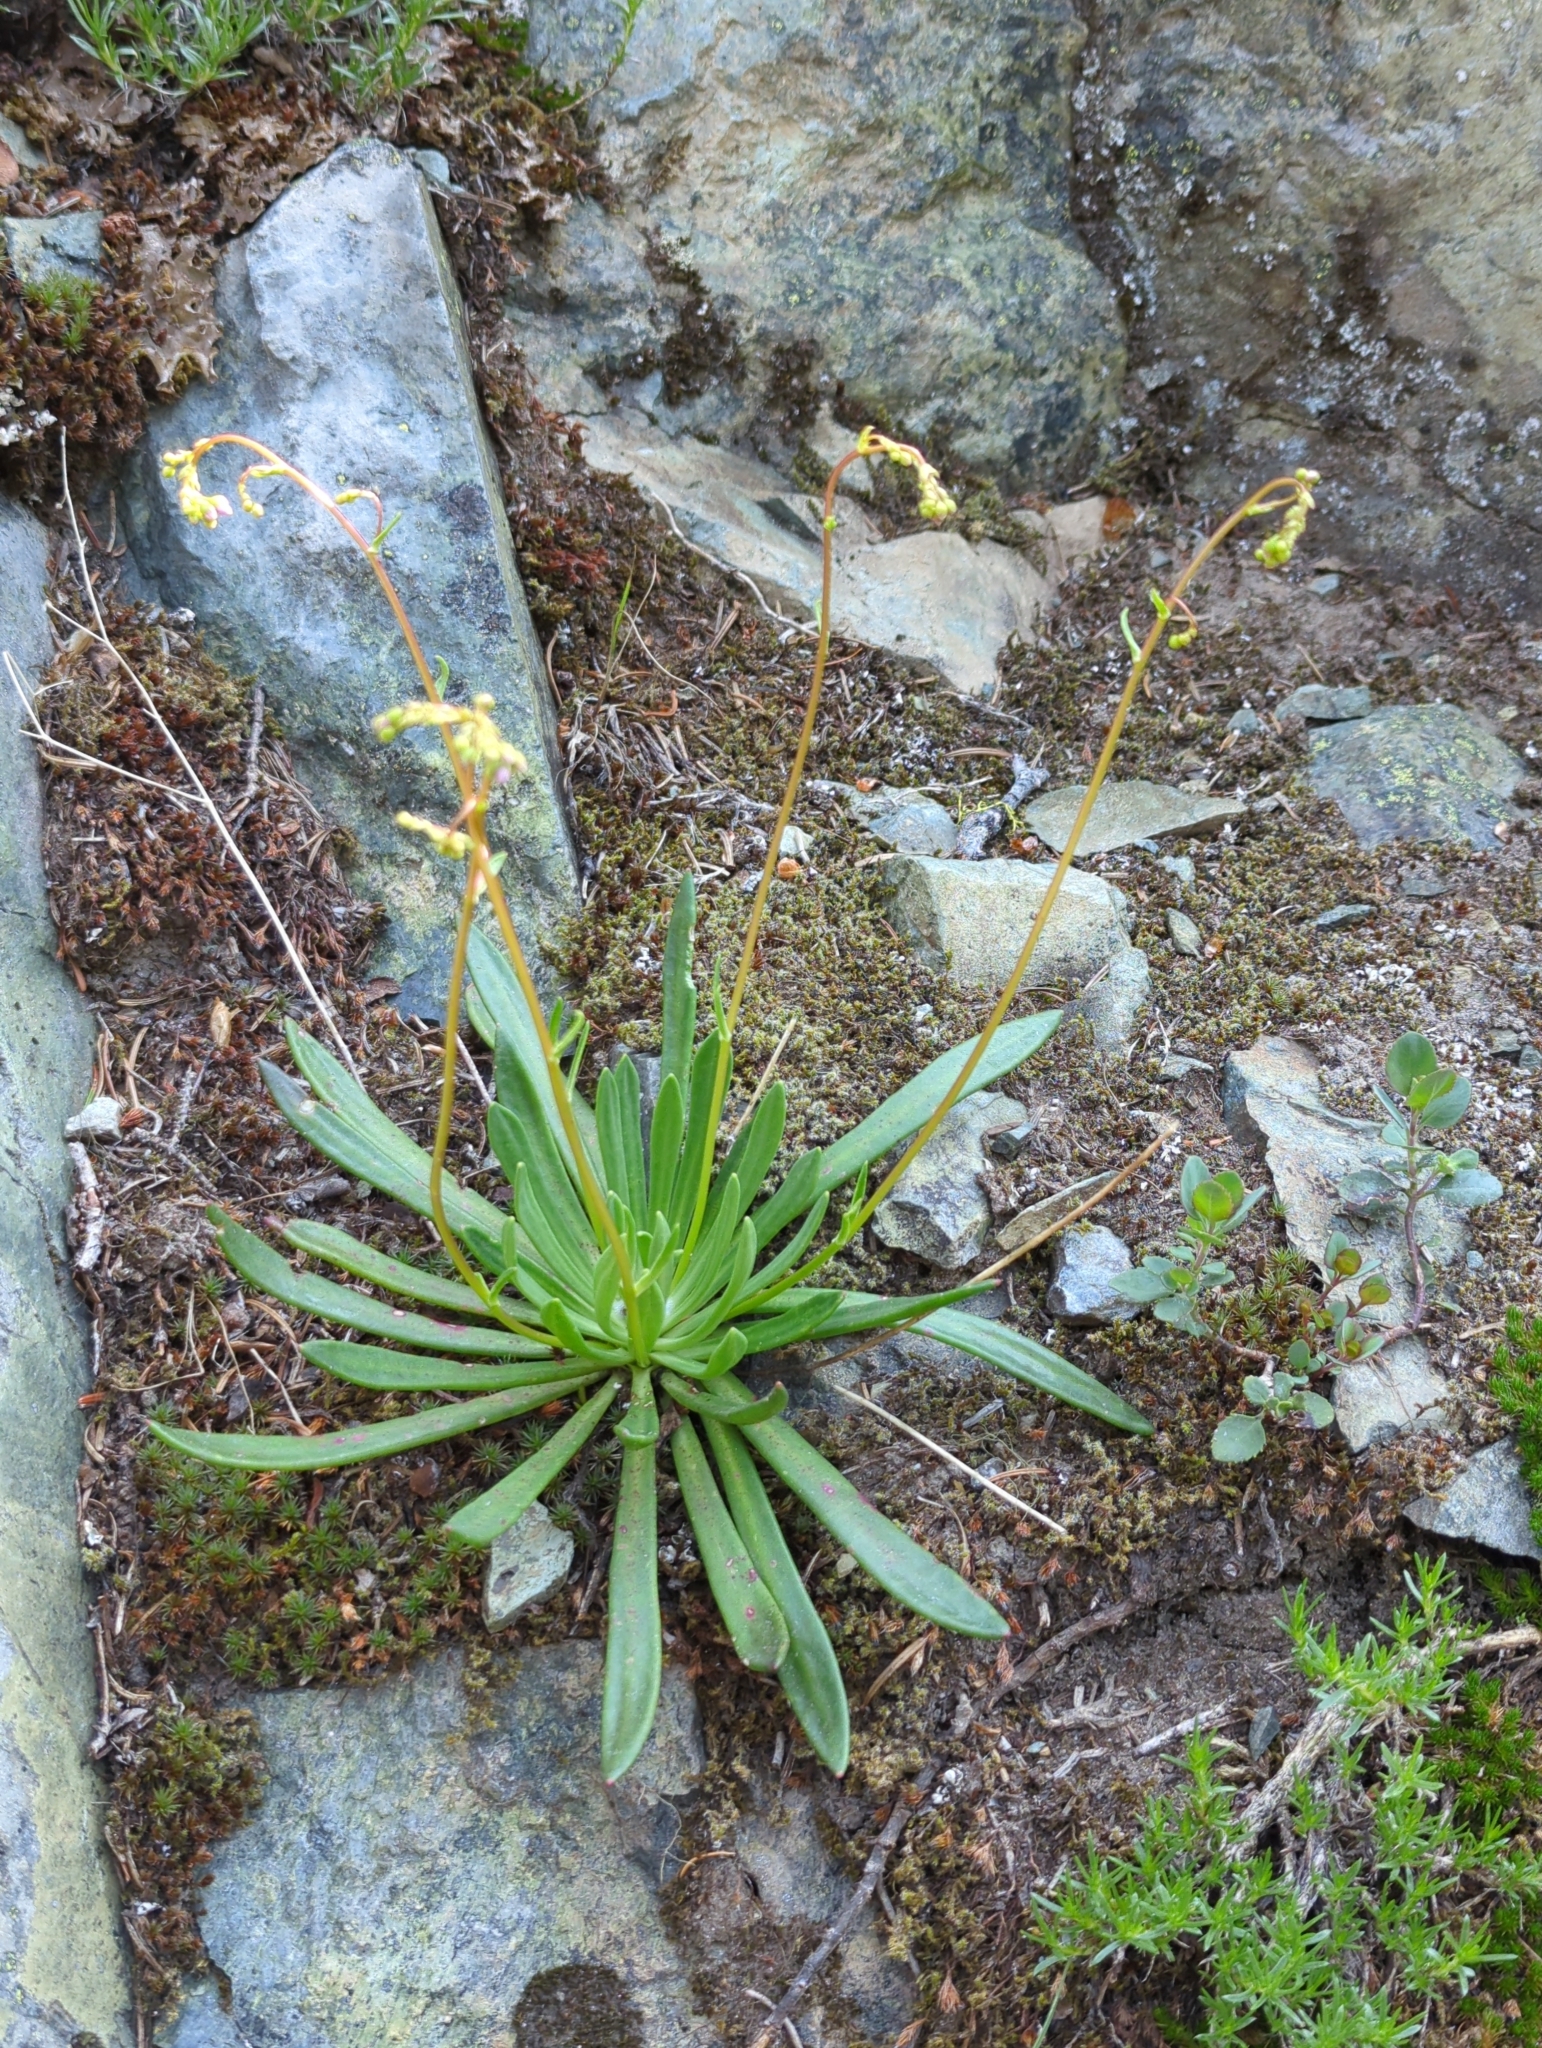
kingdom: Plantae
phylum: Tracheophyta
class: Magnoliopsida
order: Caryophyllales
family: Montiaceae
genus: Lewisia
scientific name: Lewisia columbiana
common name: Columbia lewisia
